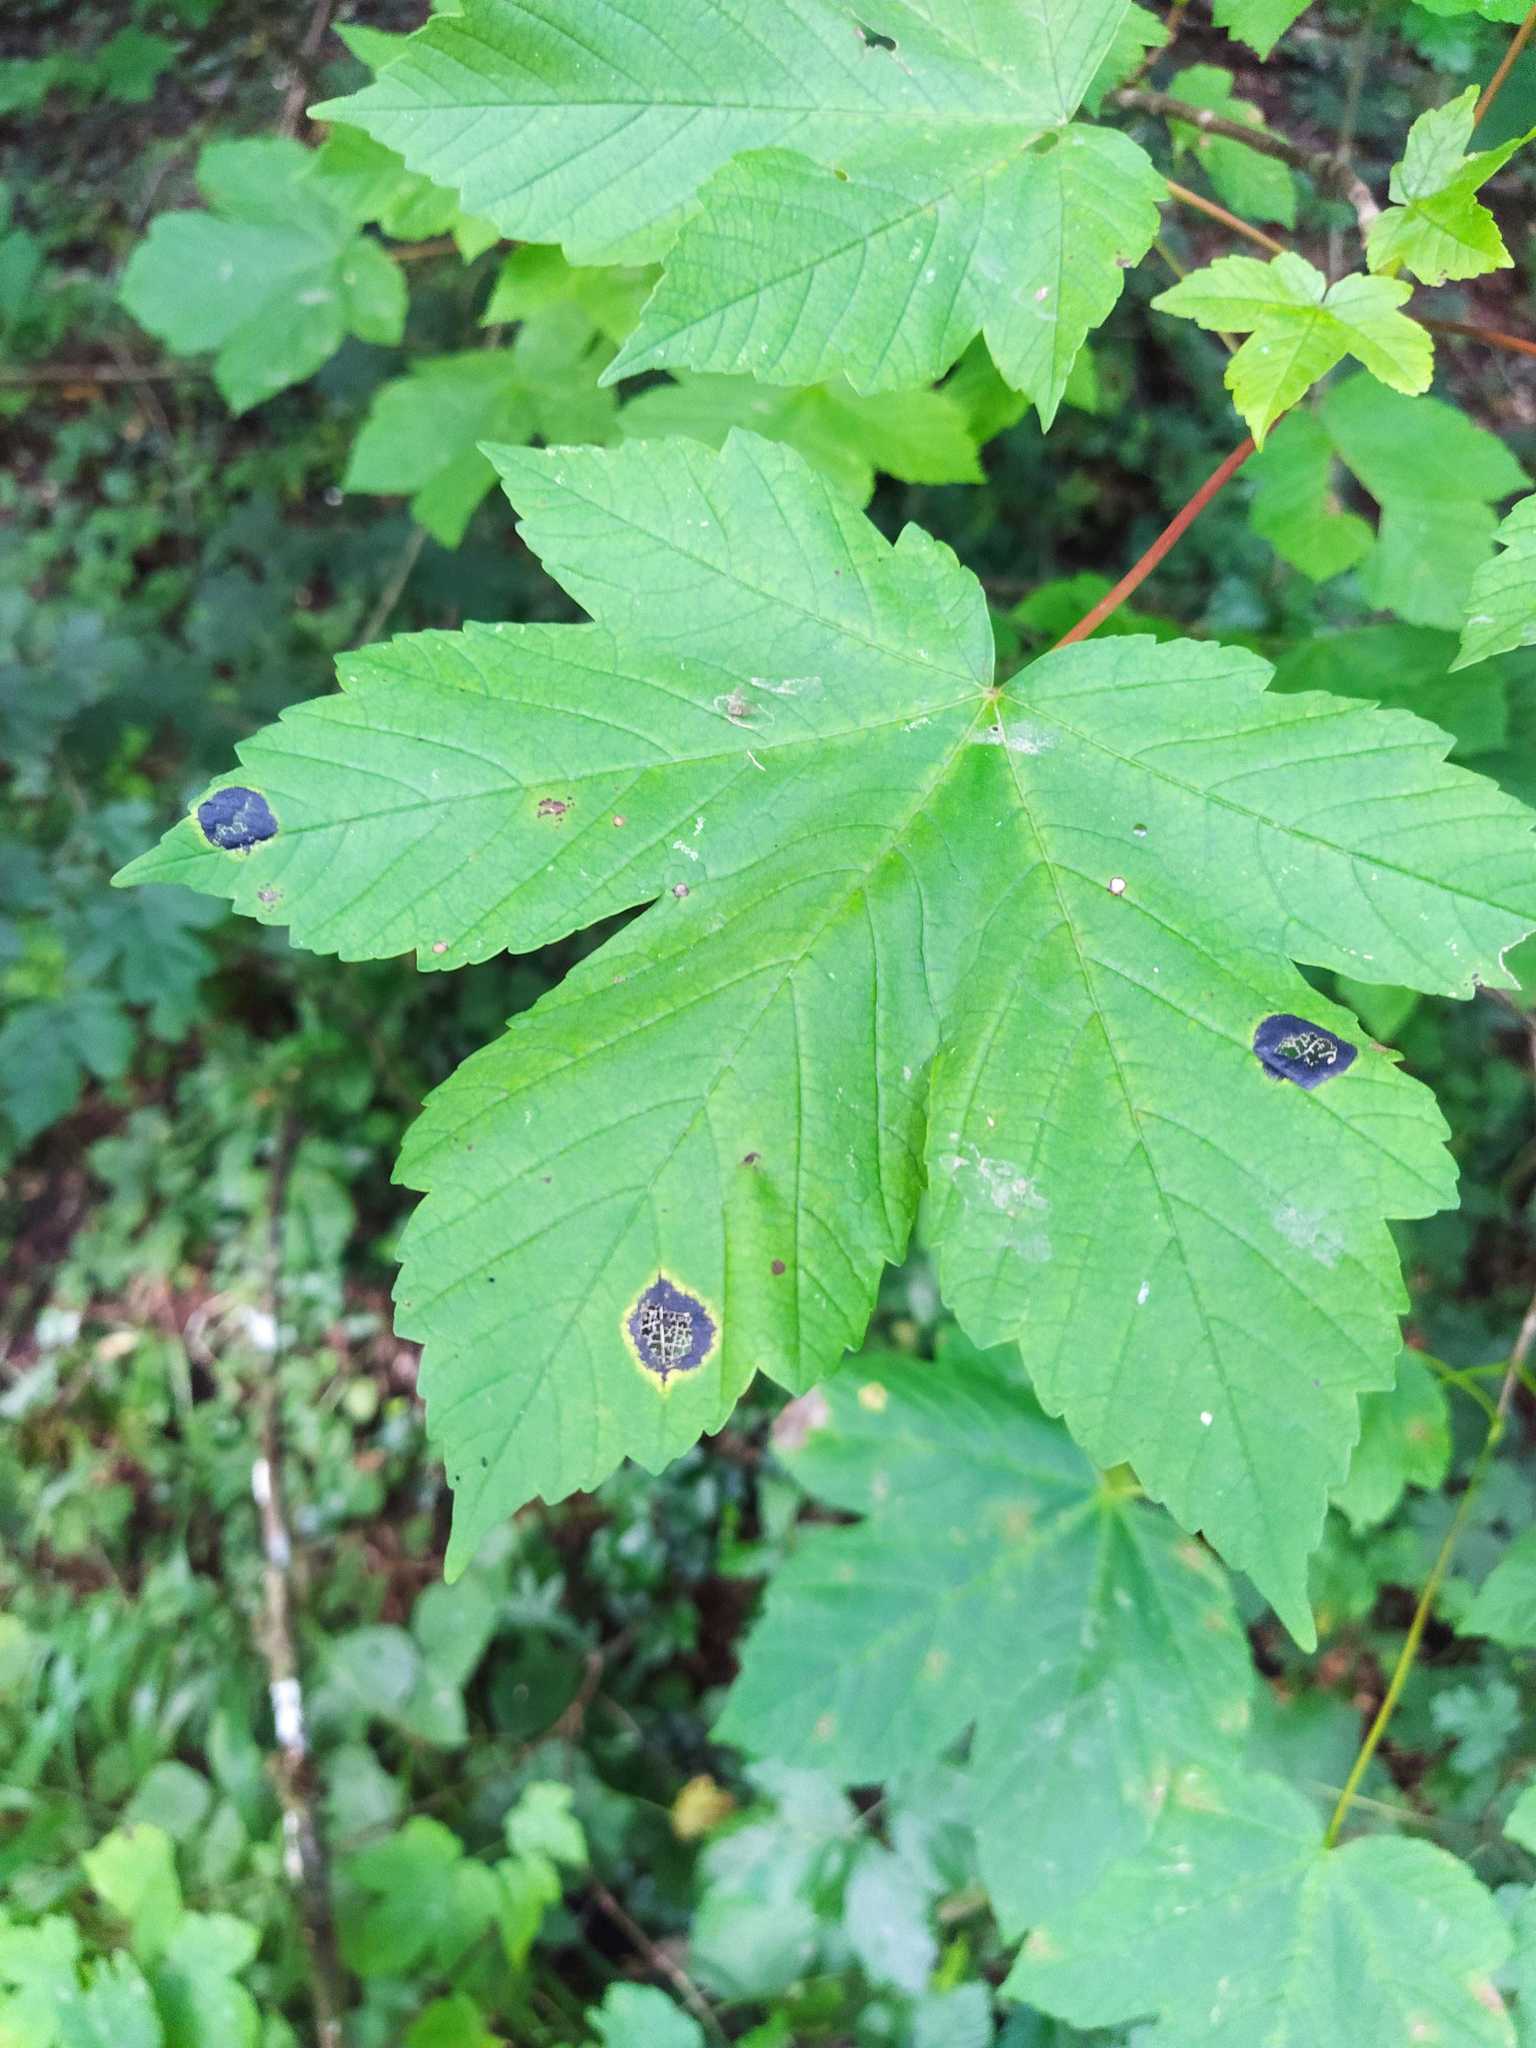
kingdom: Fungi
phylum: Ascomycota
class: Leotiomycetes
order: Rhytismatales
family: Rhytismataceae
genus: Rhytisma
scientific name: Rhytisma acerinum
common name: European tar spot
